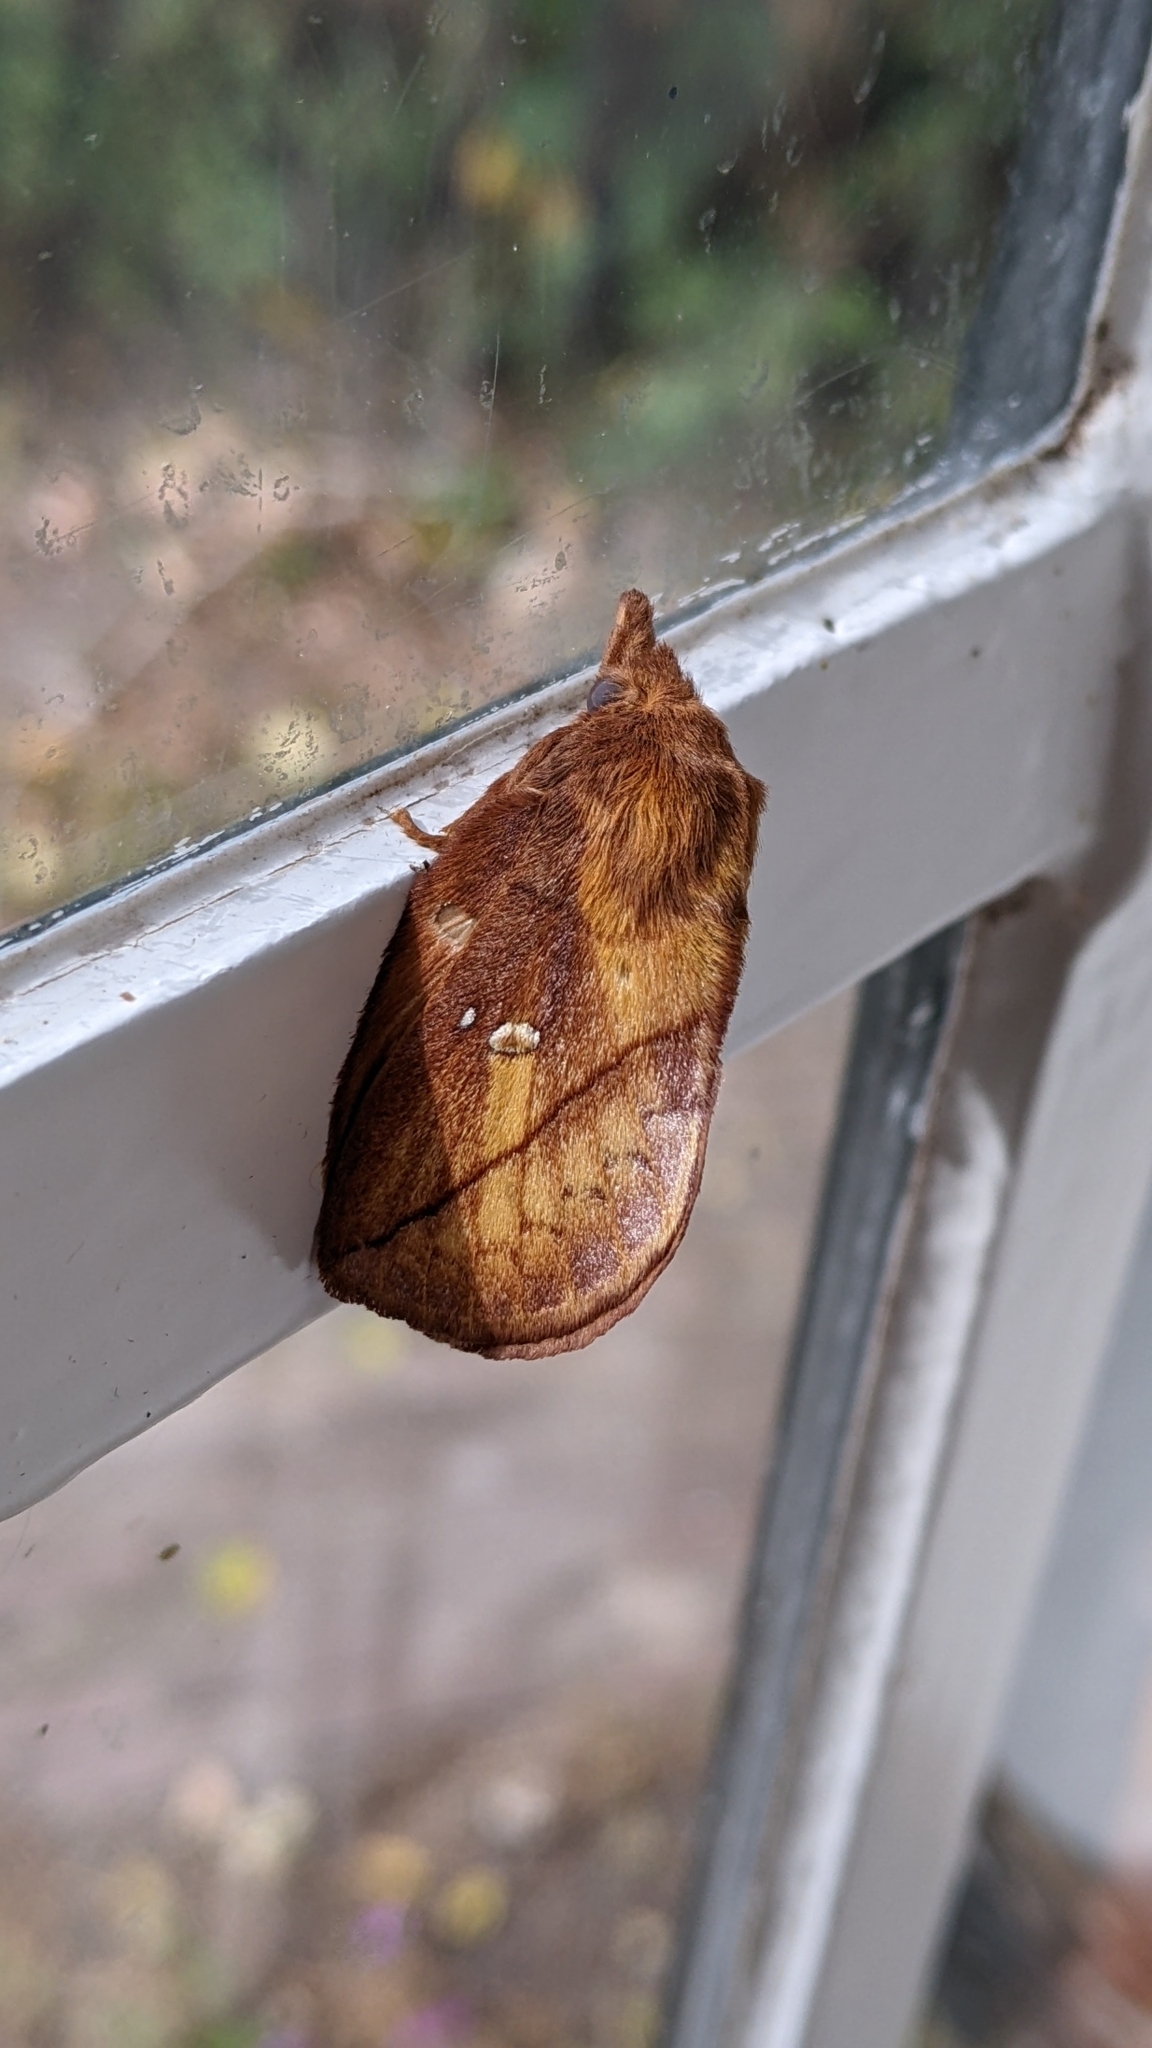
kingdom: Animalia
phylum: Arthropoda
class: Insecta
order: Lepidoptera
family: Lasiocampidae
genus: Euthrix
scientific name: Euthrix potatoria
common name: Drinker
